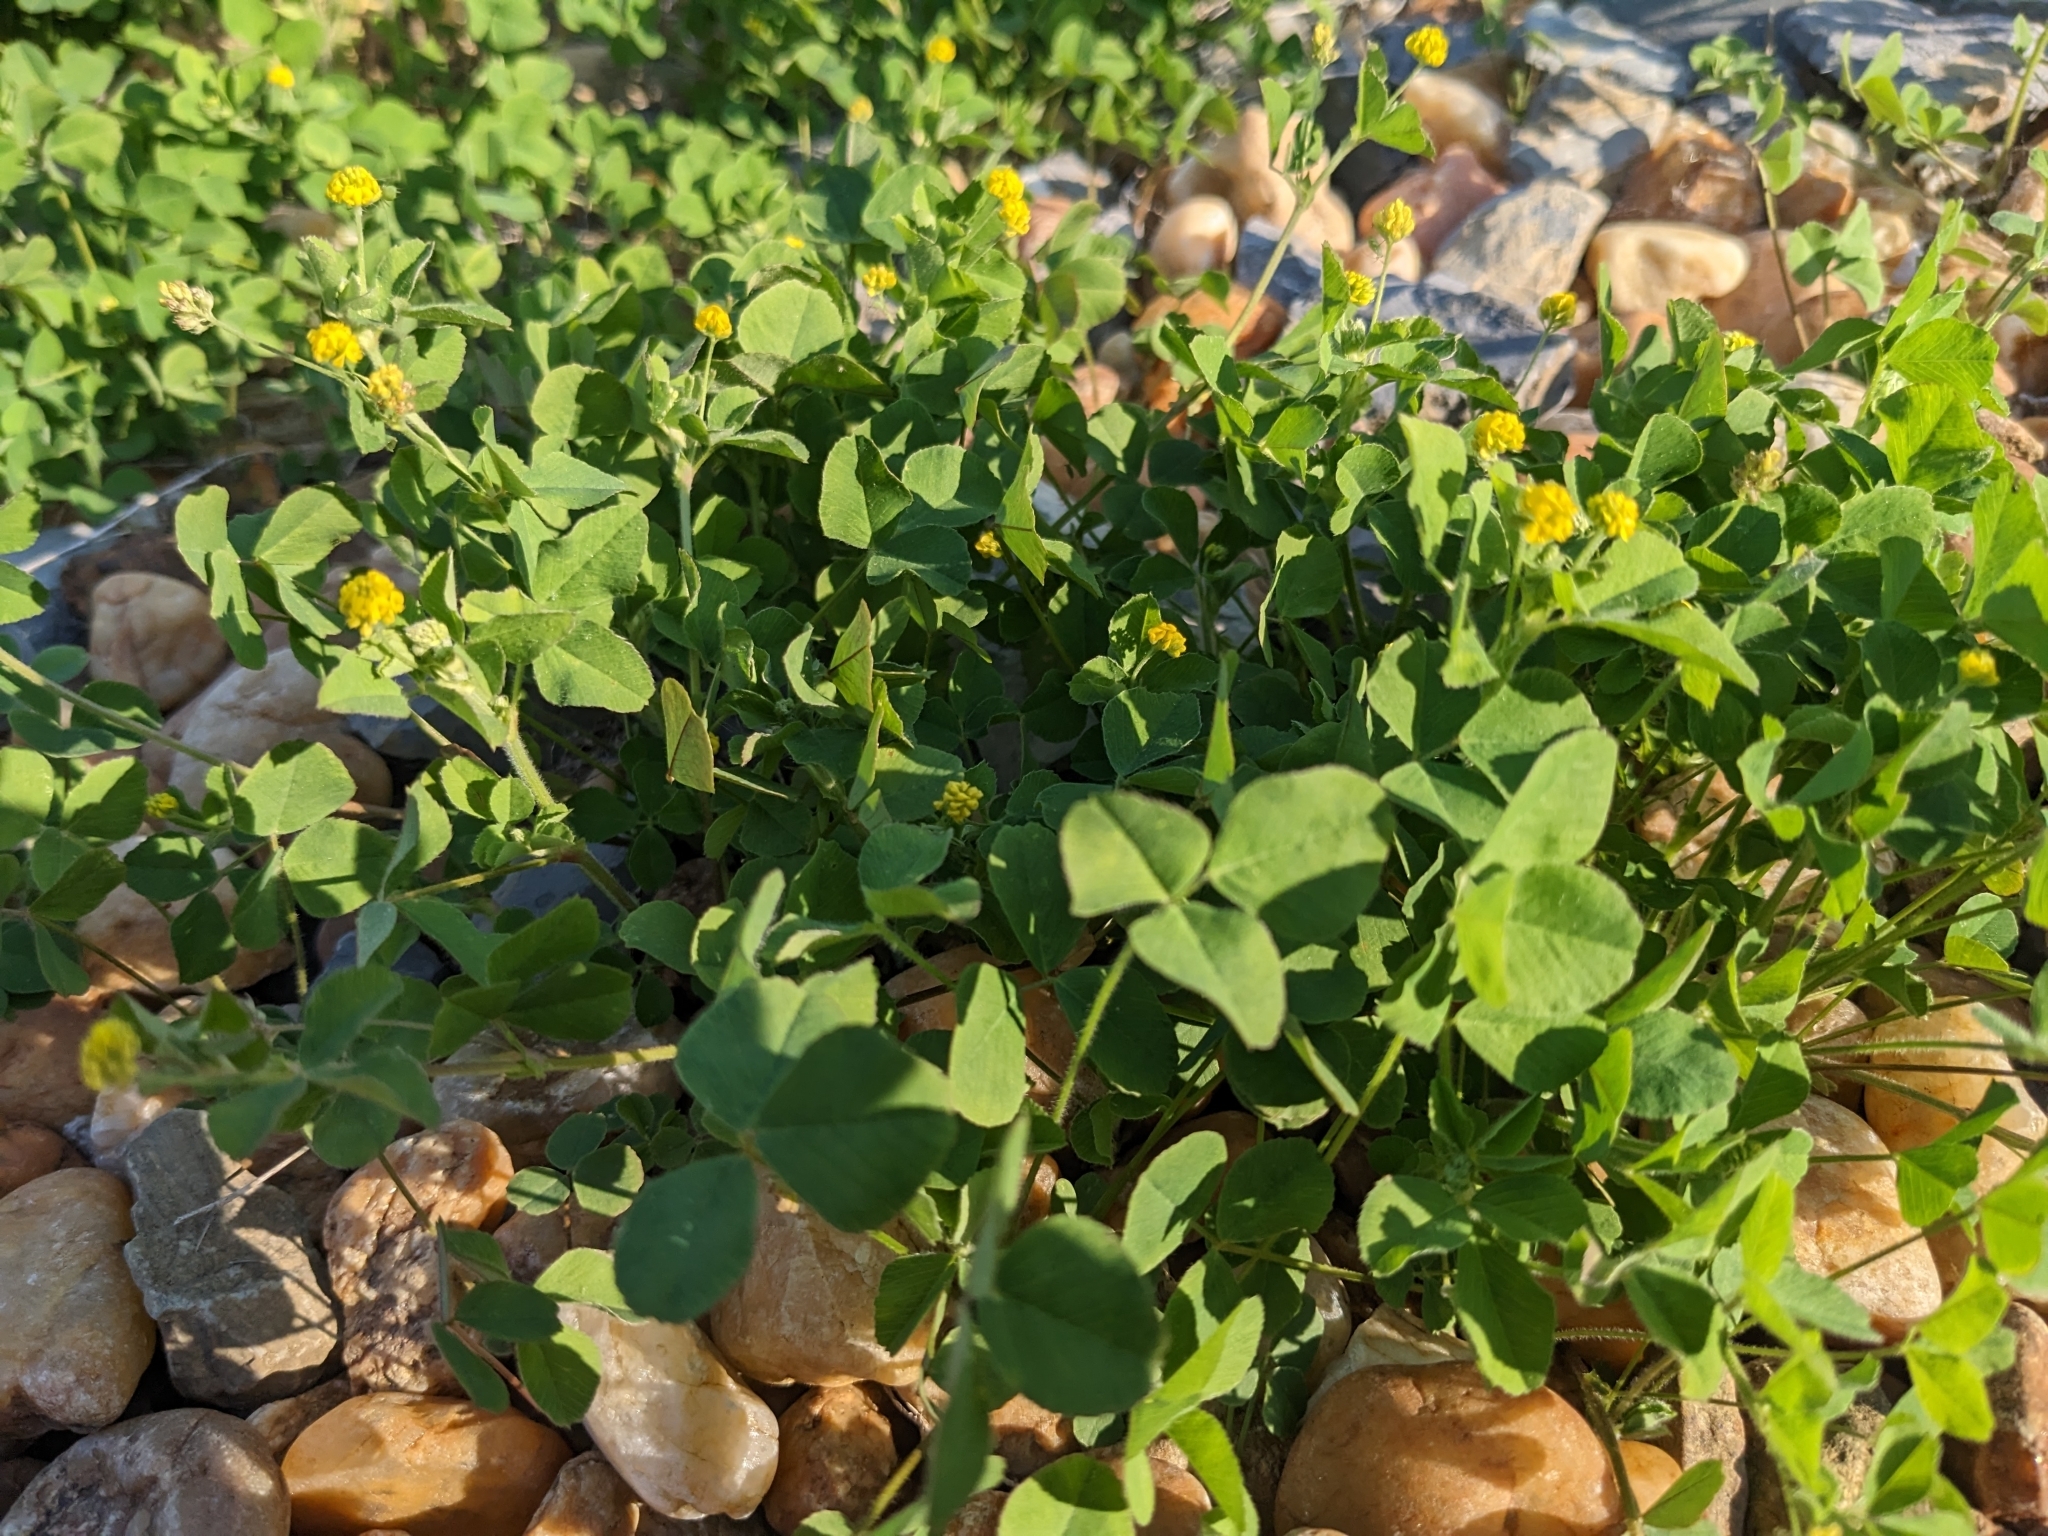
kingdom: Plantae
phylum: Tracheophyta
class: Magnoliopsida
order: Fabales
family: Fabaceae
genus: Medicago
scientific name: Medicago lupulina
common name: Black medick
